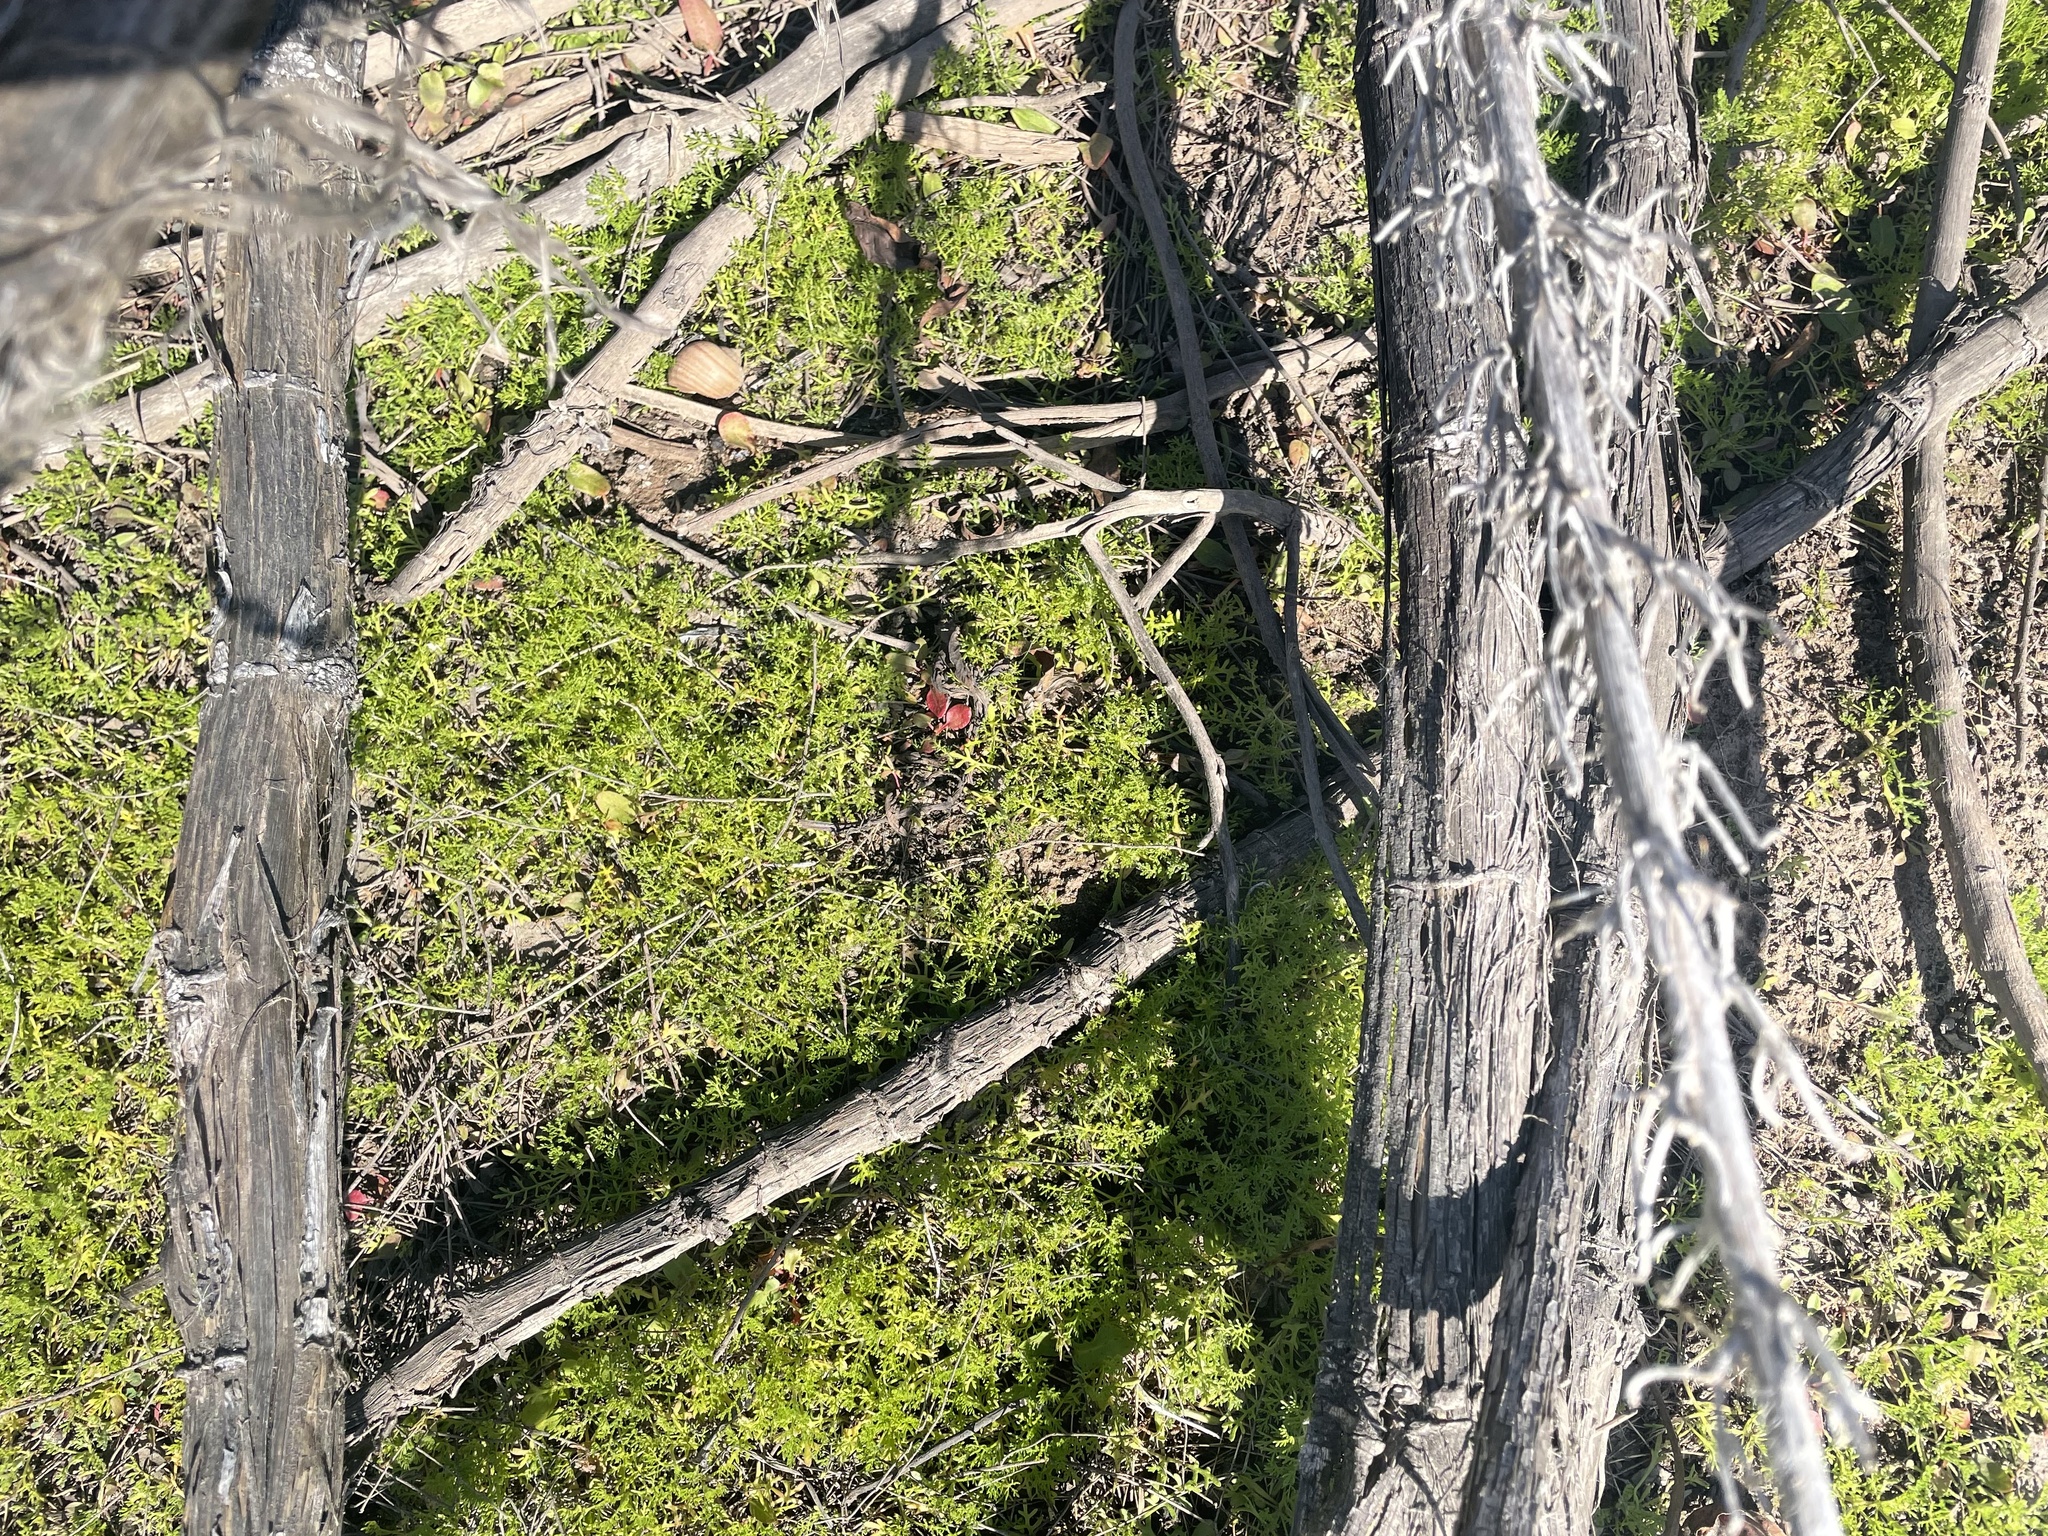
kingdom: Animalia
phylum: Mollusca
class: Gastropoda
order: Architaenioglossa
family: Ampullariidae
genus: Pomacea
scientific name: Pomacea canaliculata
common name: Channeled applesnail
